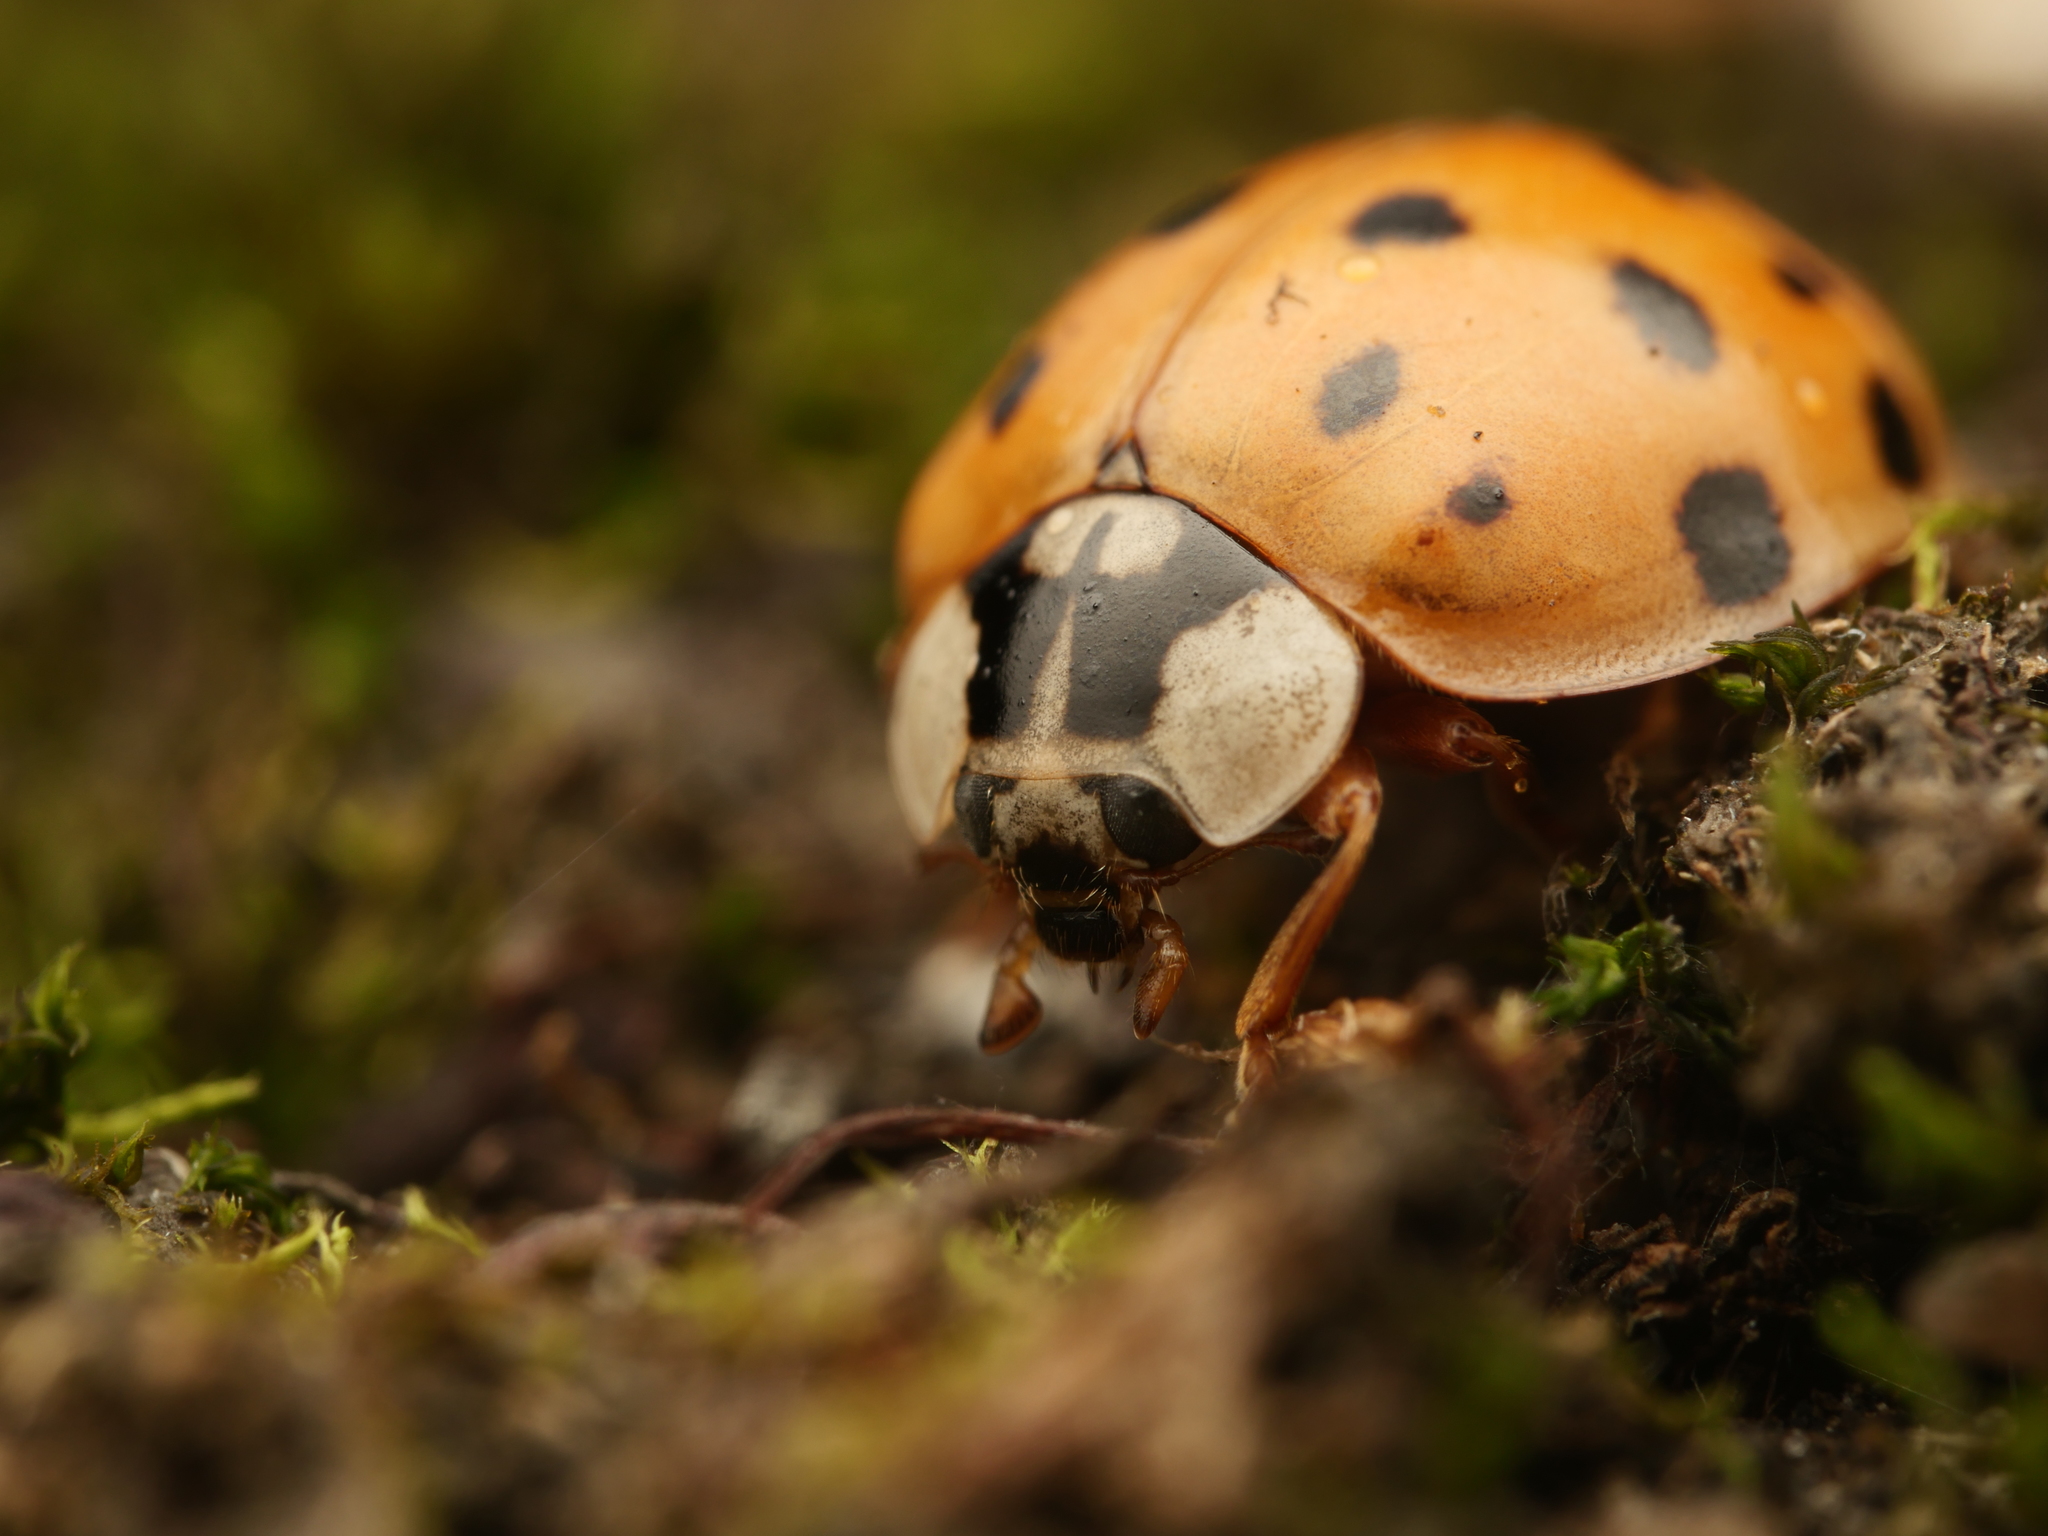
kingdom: Animalia
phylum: Arthropoda
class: Insecta
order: Coleoptera
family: Coccinellidae
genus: Harmonia
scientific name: Harmonia axyridis
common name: Harlequin ladybird
